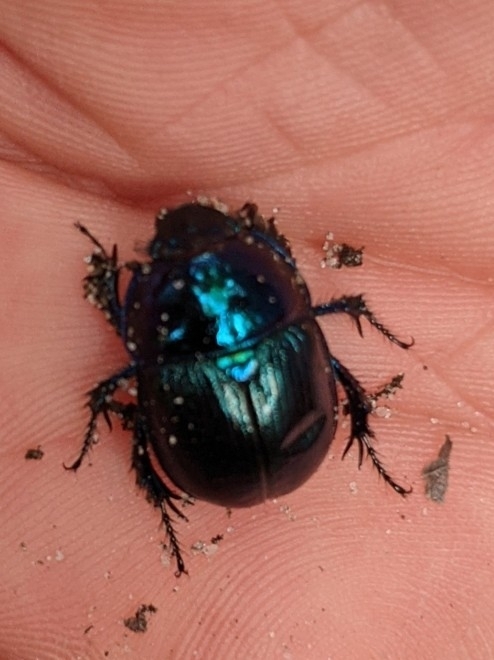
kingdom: Animalia
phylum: Arthropoda
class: Insecta
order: Coleoptera
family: Geotrupidae
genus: Anoplotrupes
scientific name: Anoplotrupes stercorosus
